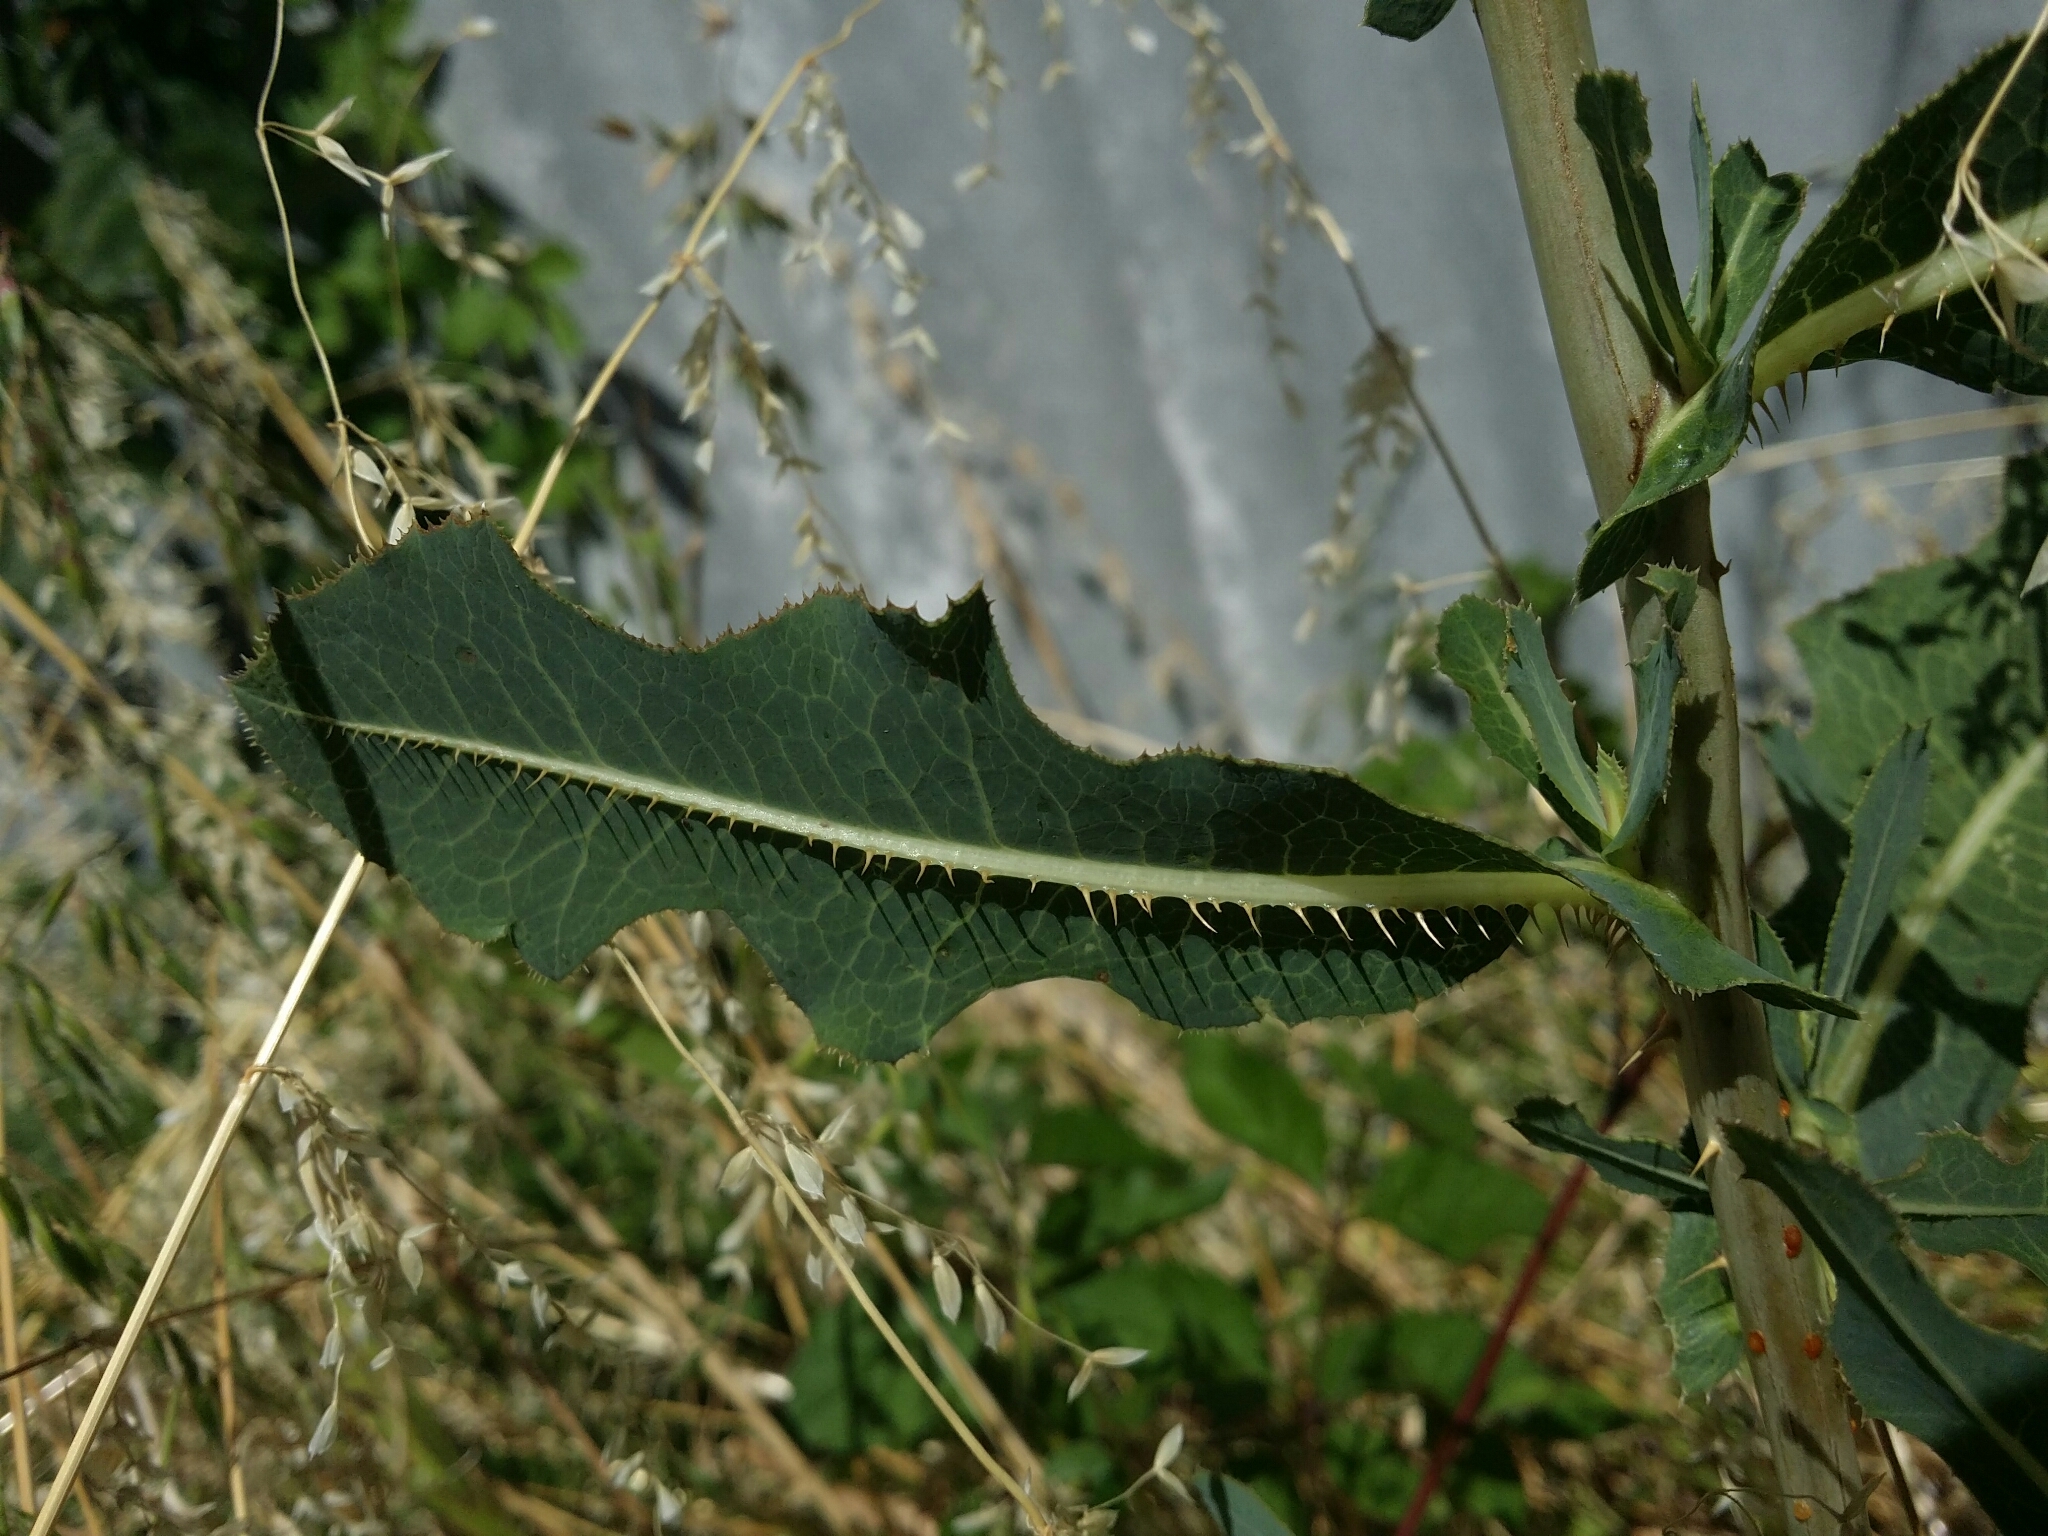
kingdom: Plantae
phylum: Tracheophyta
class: Magnoliopsida
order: Asterales
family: Asteraceae
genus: Lactuca
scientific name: Lactuca serriola
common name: Prickly lettuce
